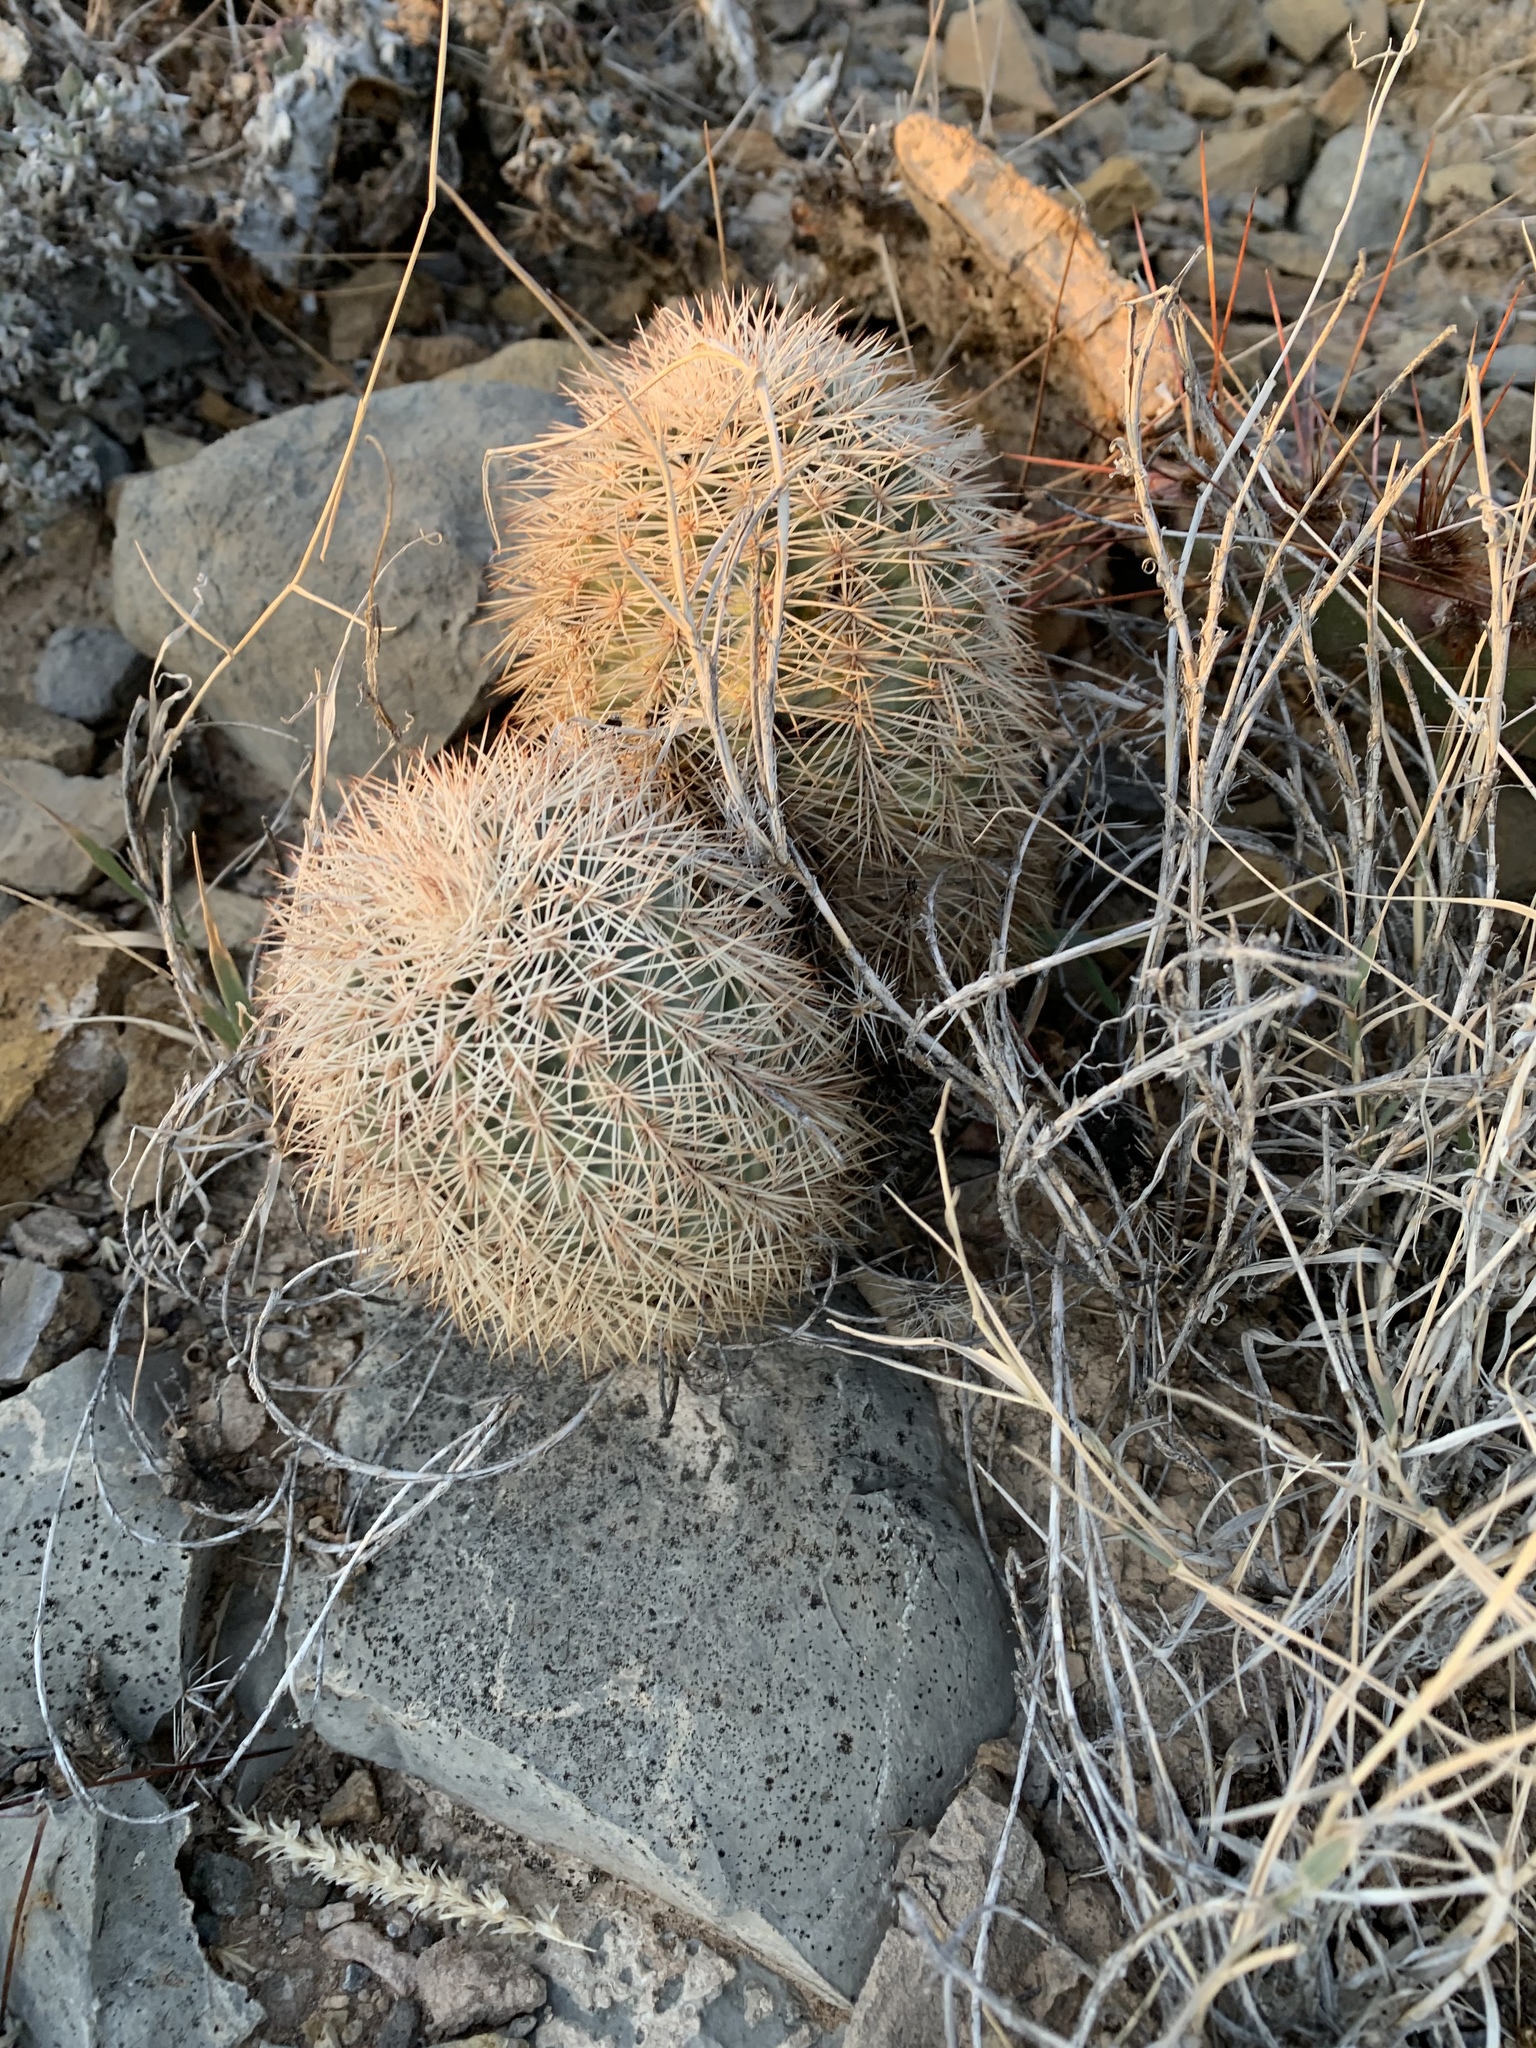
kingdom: Plantae
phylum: Tracheophyta
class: Magnoliopsida
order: Caryophyllales
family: Cactaceae
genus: Echinocereus
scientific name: Echinocereus dasyacanthus
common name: Spiny hedgehog cactus
